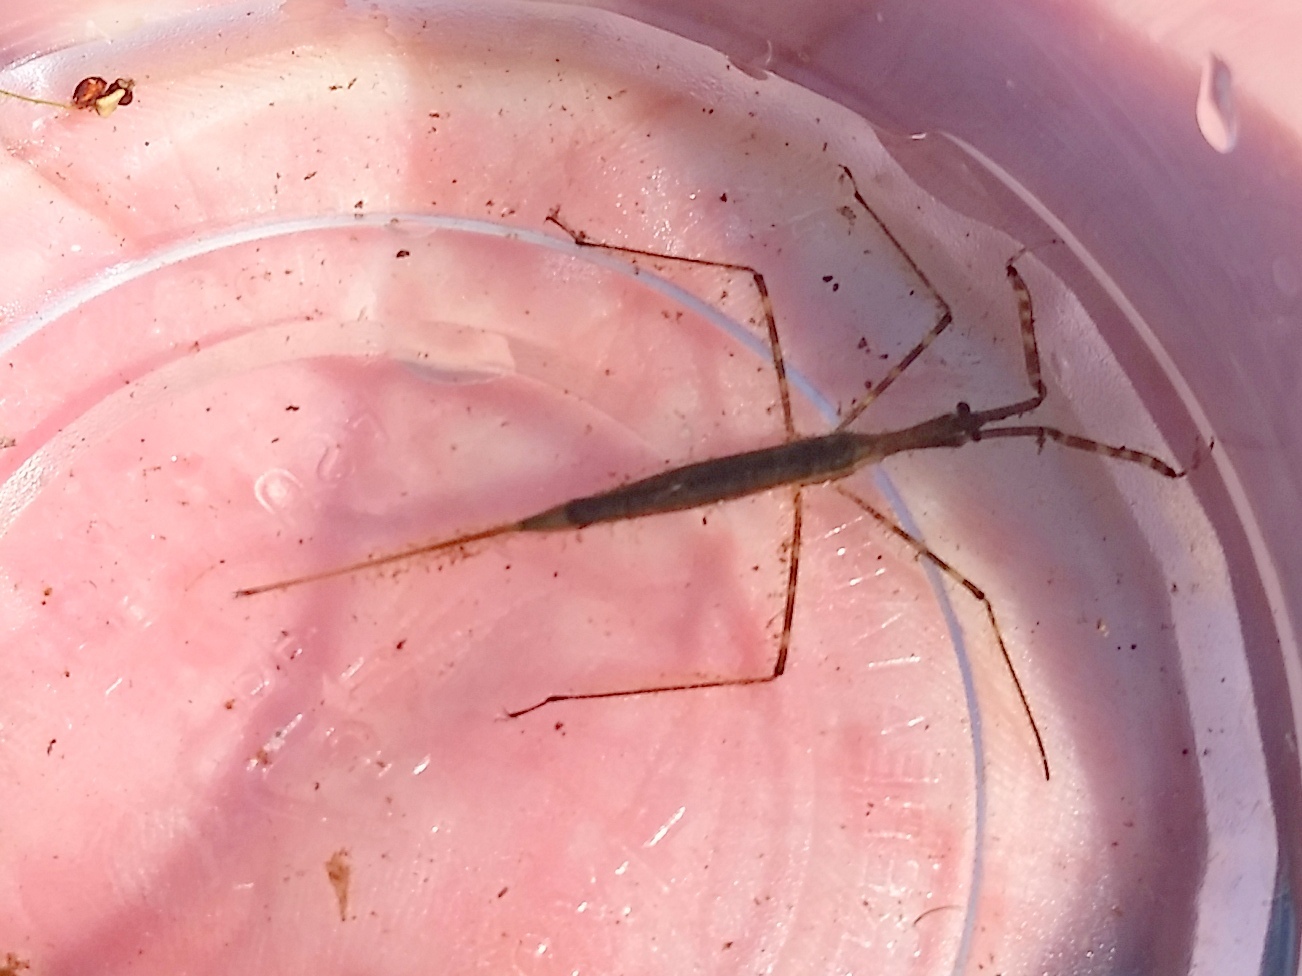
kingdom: Animalia
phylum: Arthropoda
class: Insecta
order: Hemiptera
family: Nepidae
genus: Ranatra
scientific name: Ranatra
